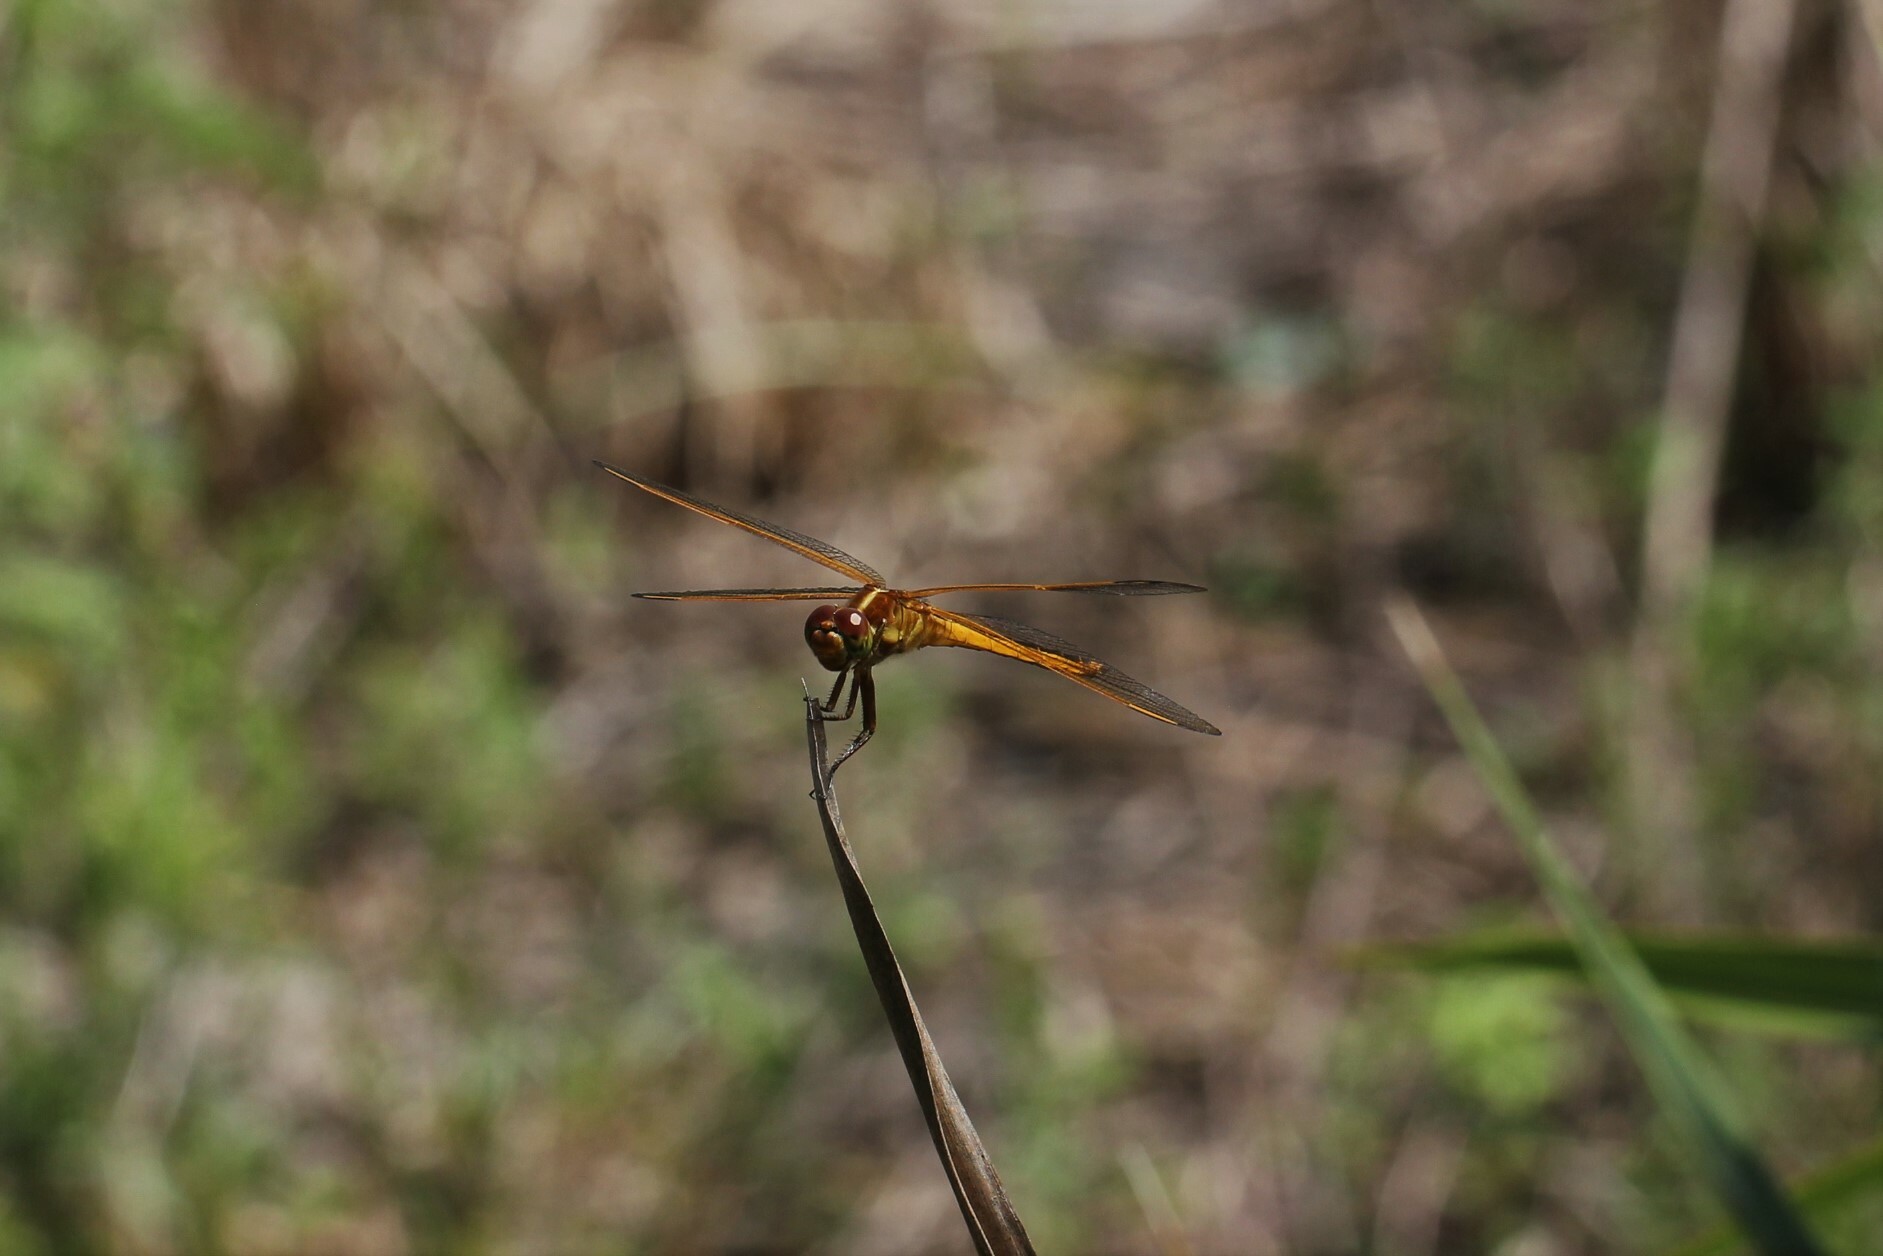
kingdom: Animalia
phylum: Arthropoda
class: Insecta
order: Odonata
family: Libellulidae
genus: Libellula
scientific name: Libellula needhami
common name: Needham's skimmer
